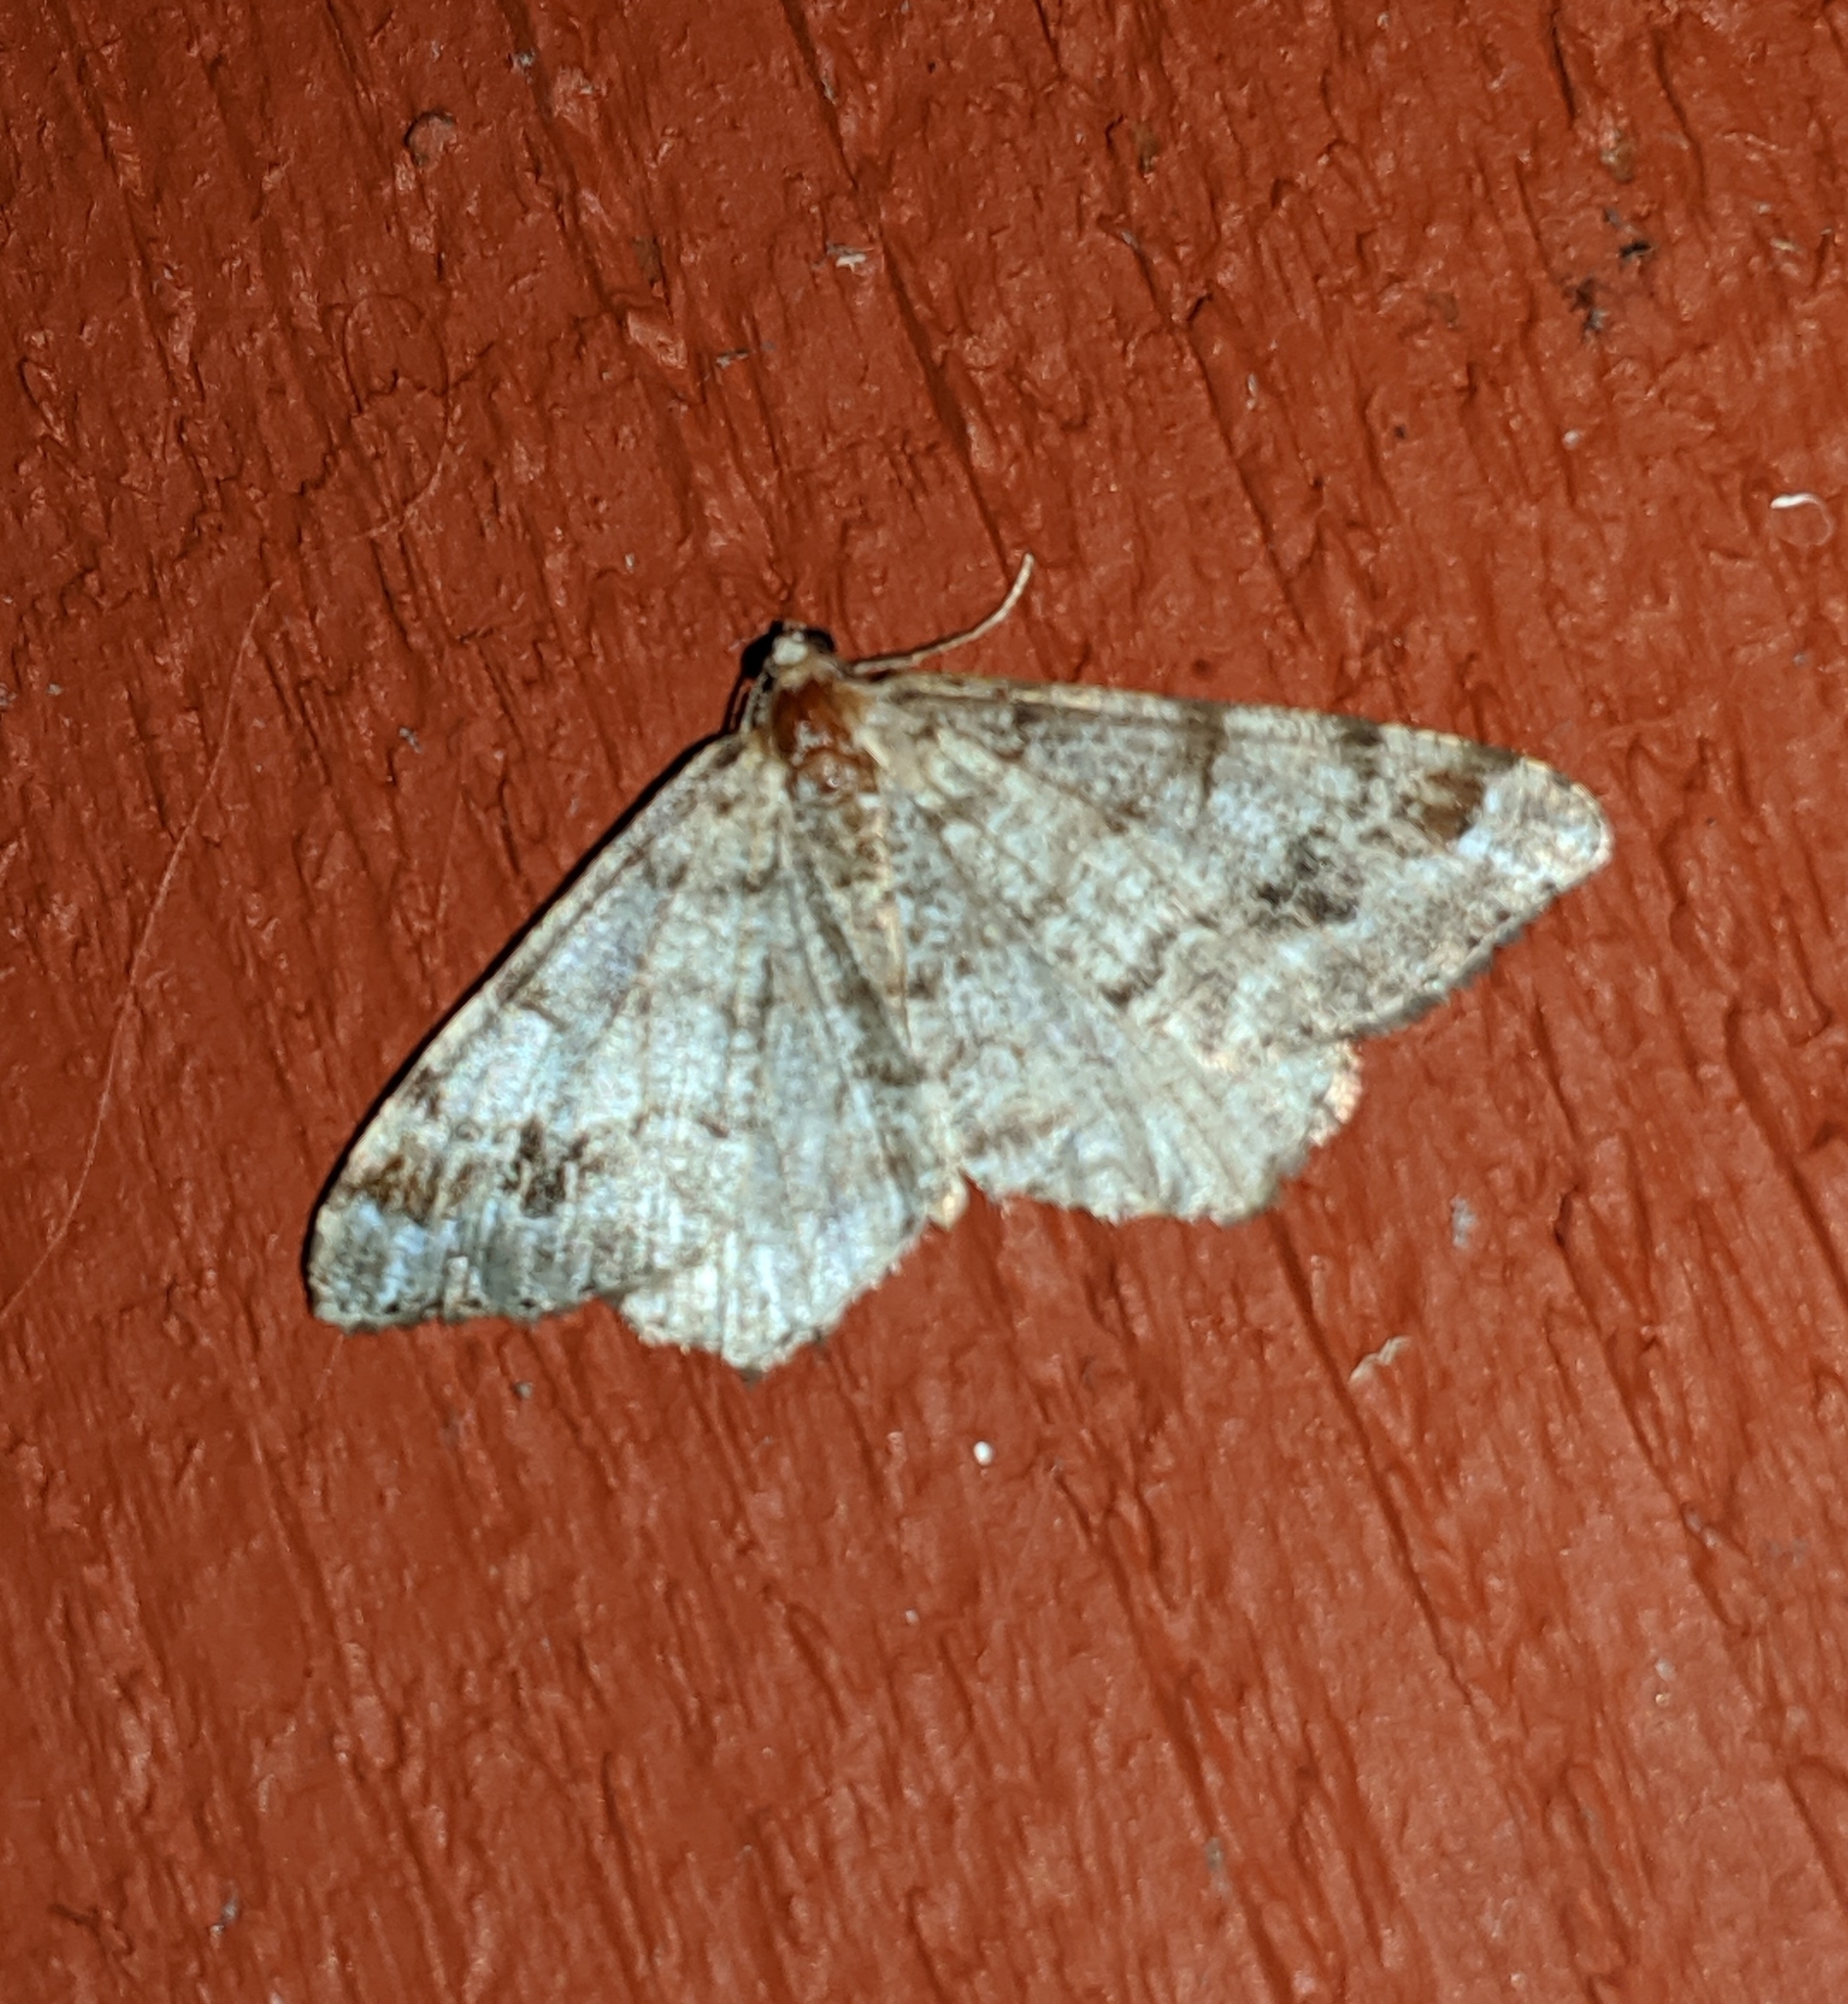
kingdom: Animalia
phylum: Arthropoda
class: Insecta
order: Lepidoptera
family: Geometridae
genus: Macaria
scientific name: Macaria signaria
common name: Dusky peacock
